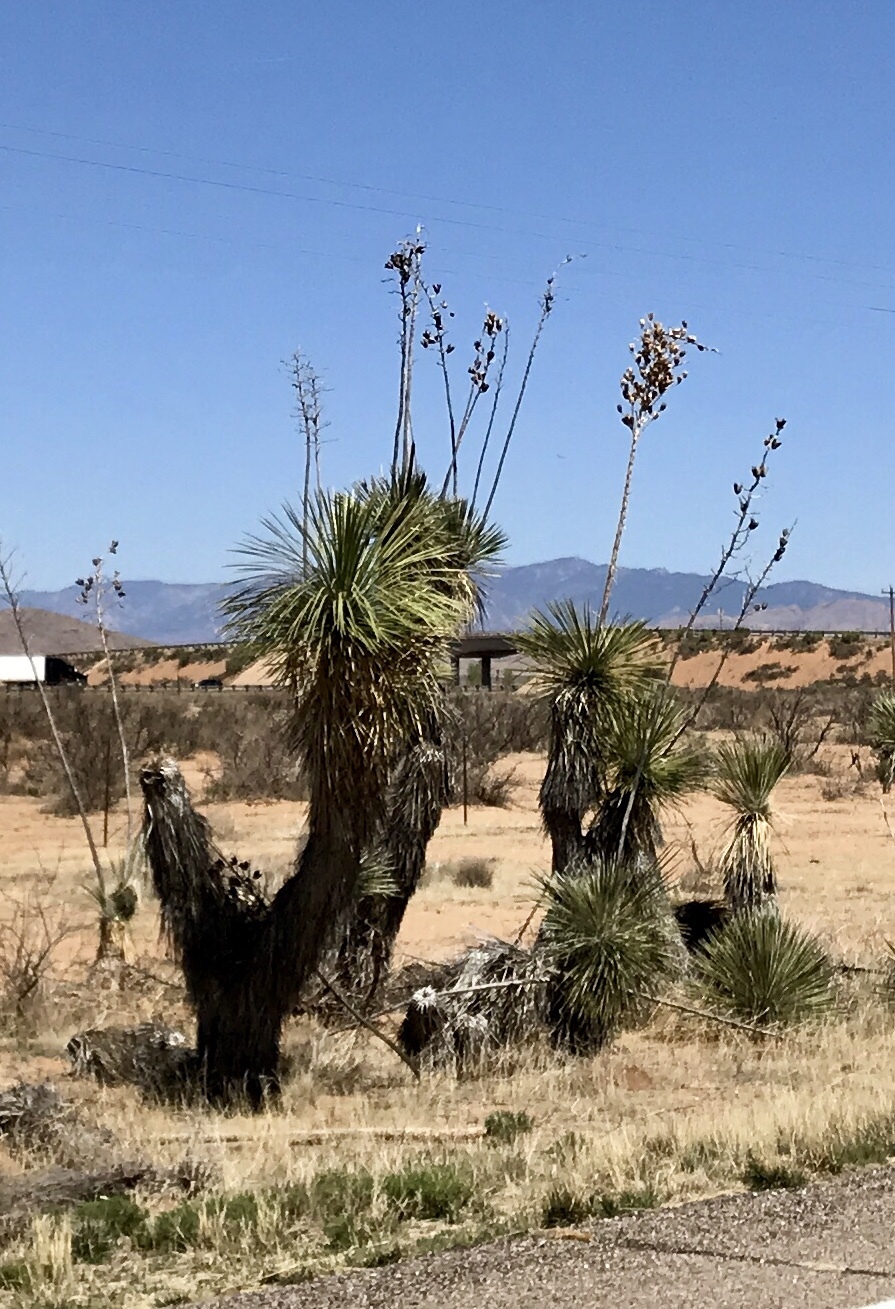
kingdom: Plantae
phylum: Tracheophyta
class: Liliopsida
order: Asparagales
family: Asparagaceae
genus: Yucca
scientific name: Yucca elata
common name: Palmella
